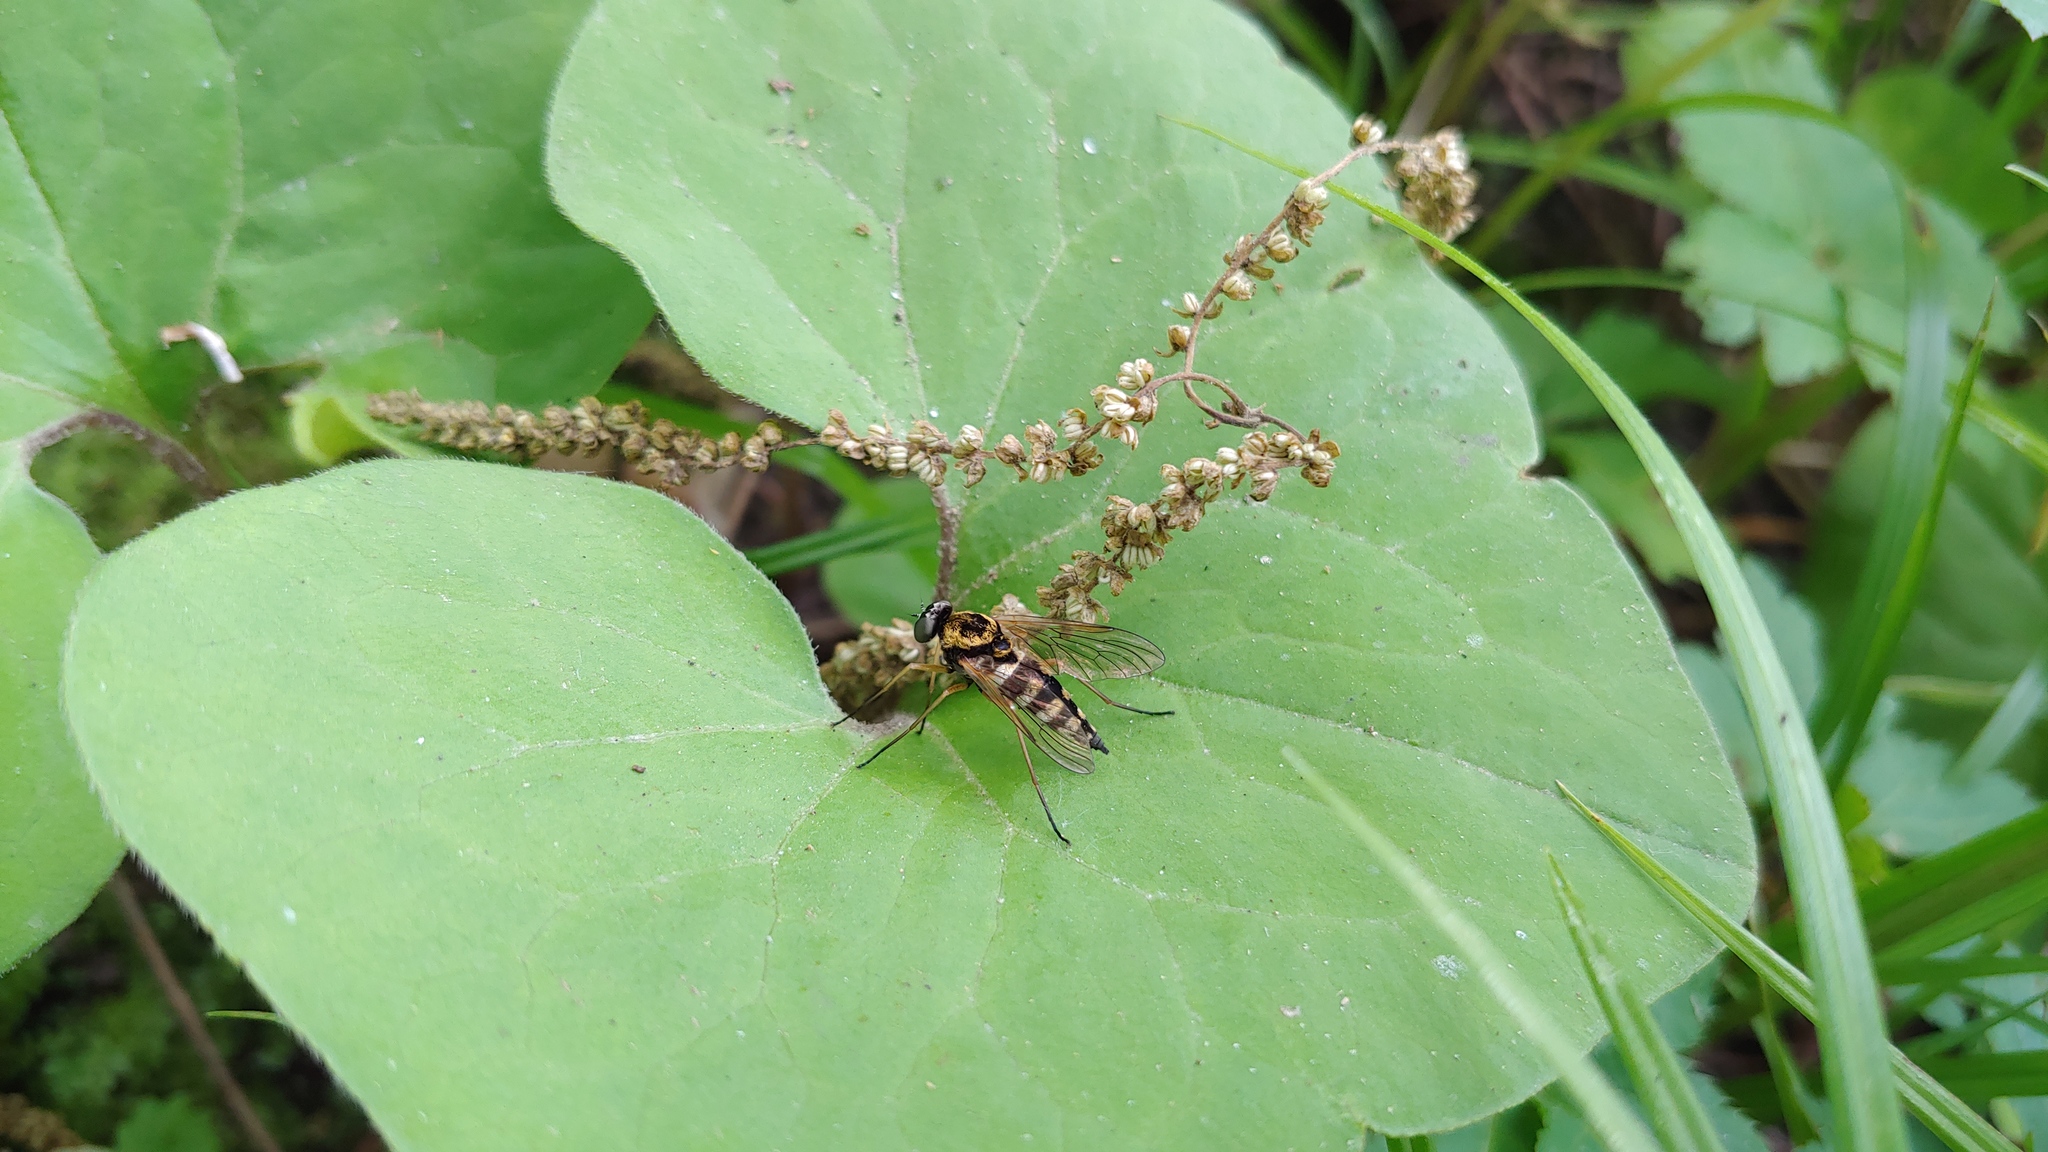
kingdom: Animalia
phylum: Arthropoda
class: Insecta
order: Diptera
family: Rhagionidae
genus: Chrysopilus
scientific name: Chrysopilus ornatus
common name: Ornate snipe fly
